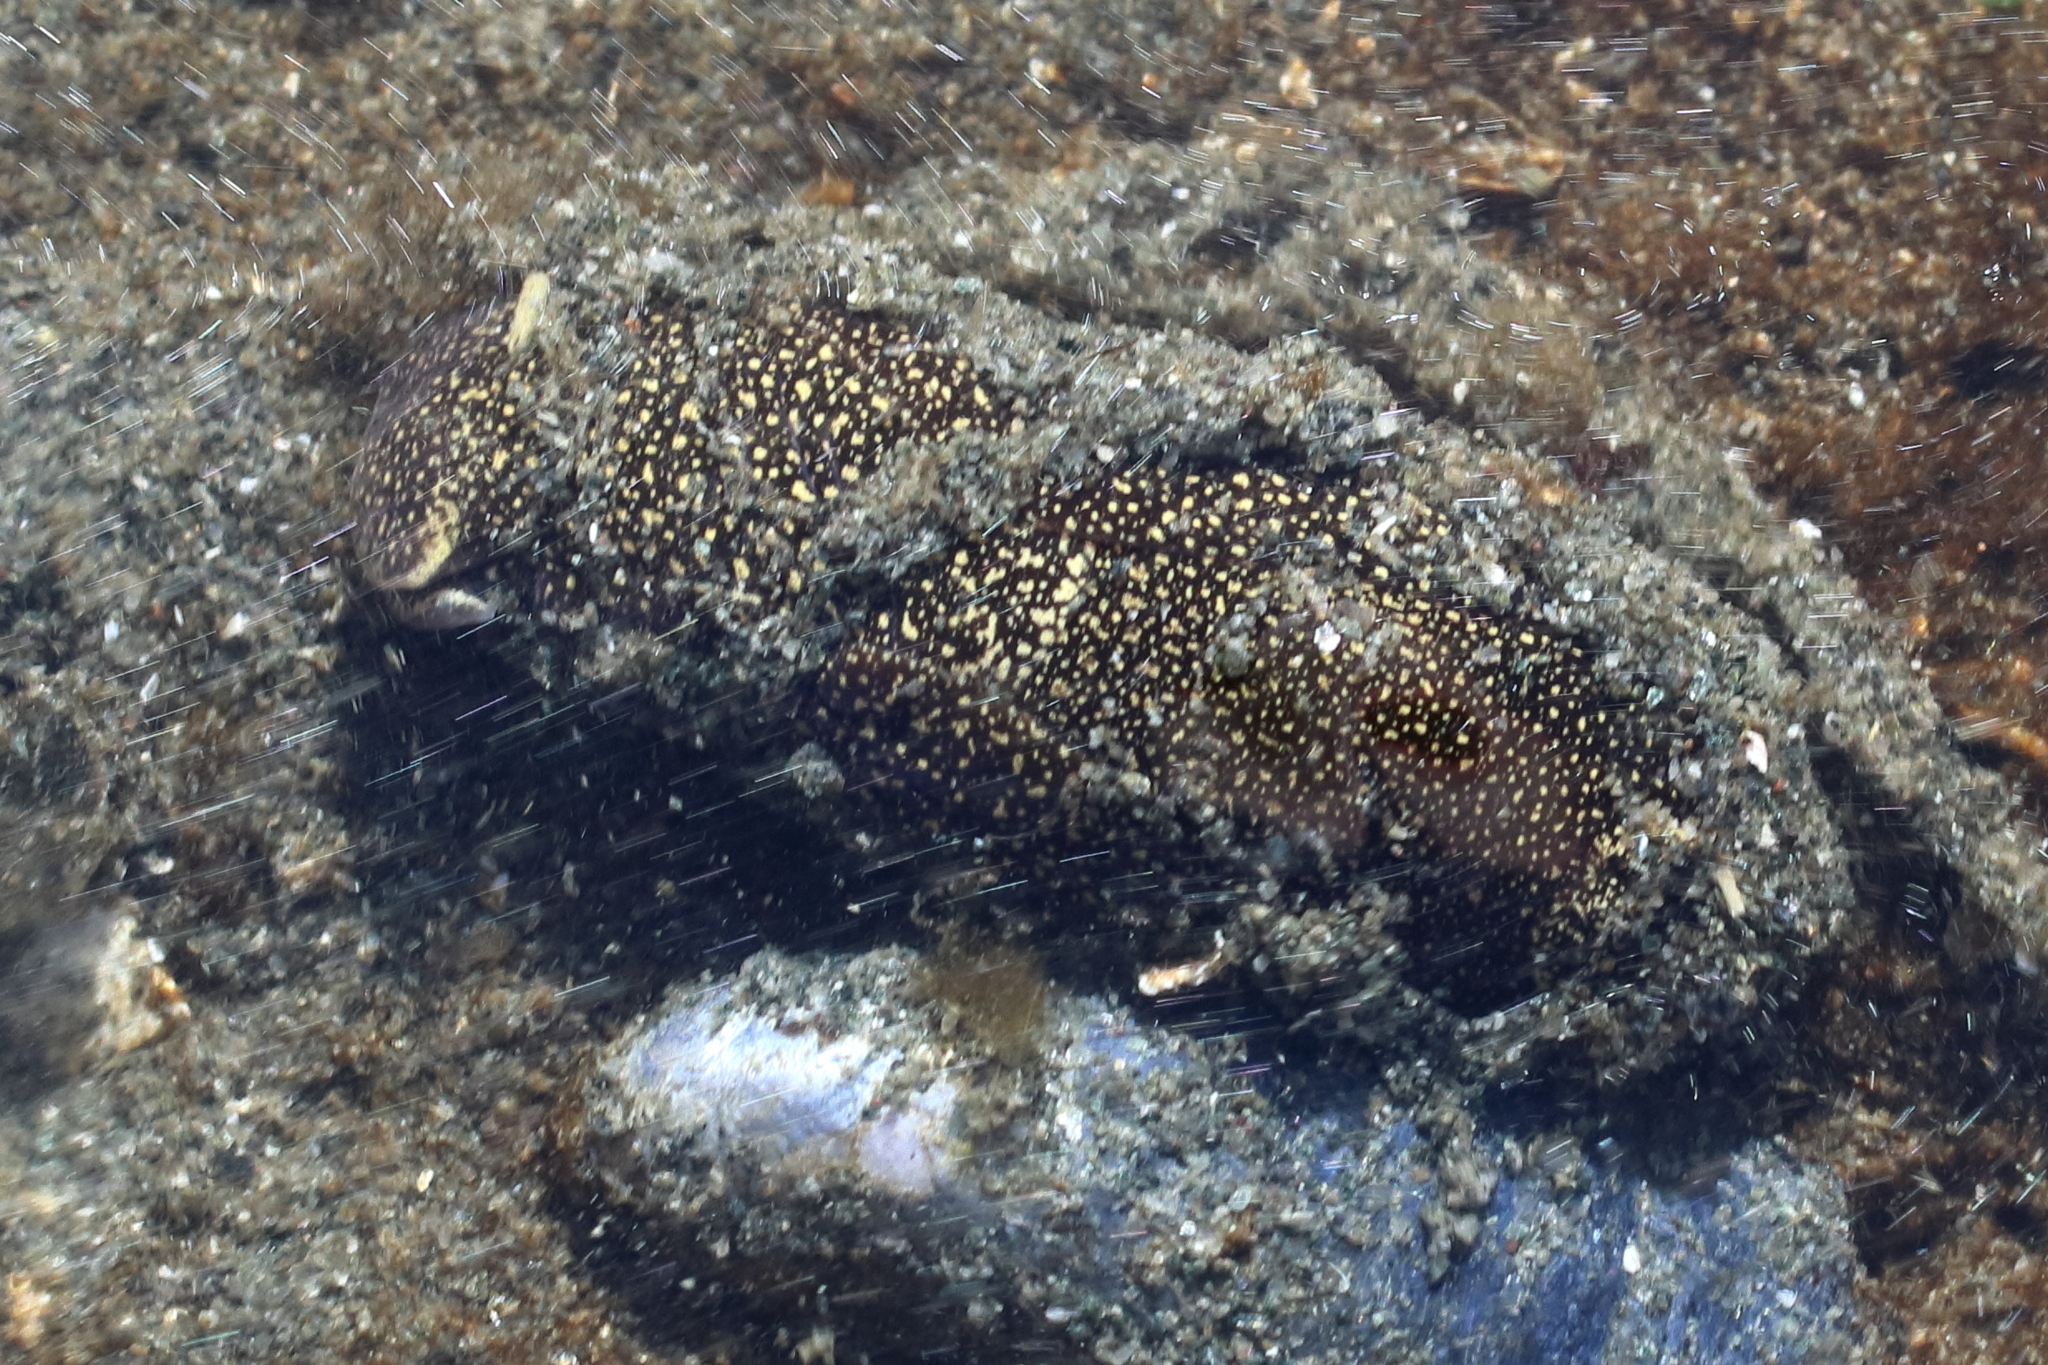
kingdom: Animalia
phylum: Mollusca
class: Gastropoda
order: Cephalaspidea
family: Aglajidae
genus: Aglaja
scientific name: Aglaja ocelligera
